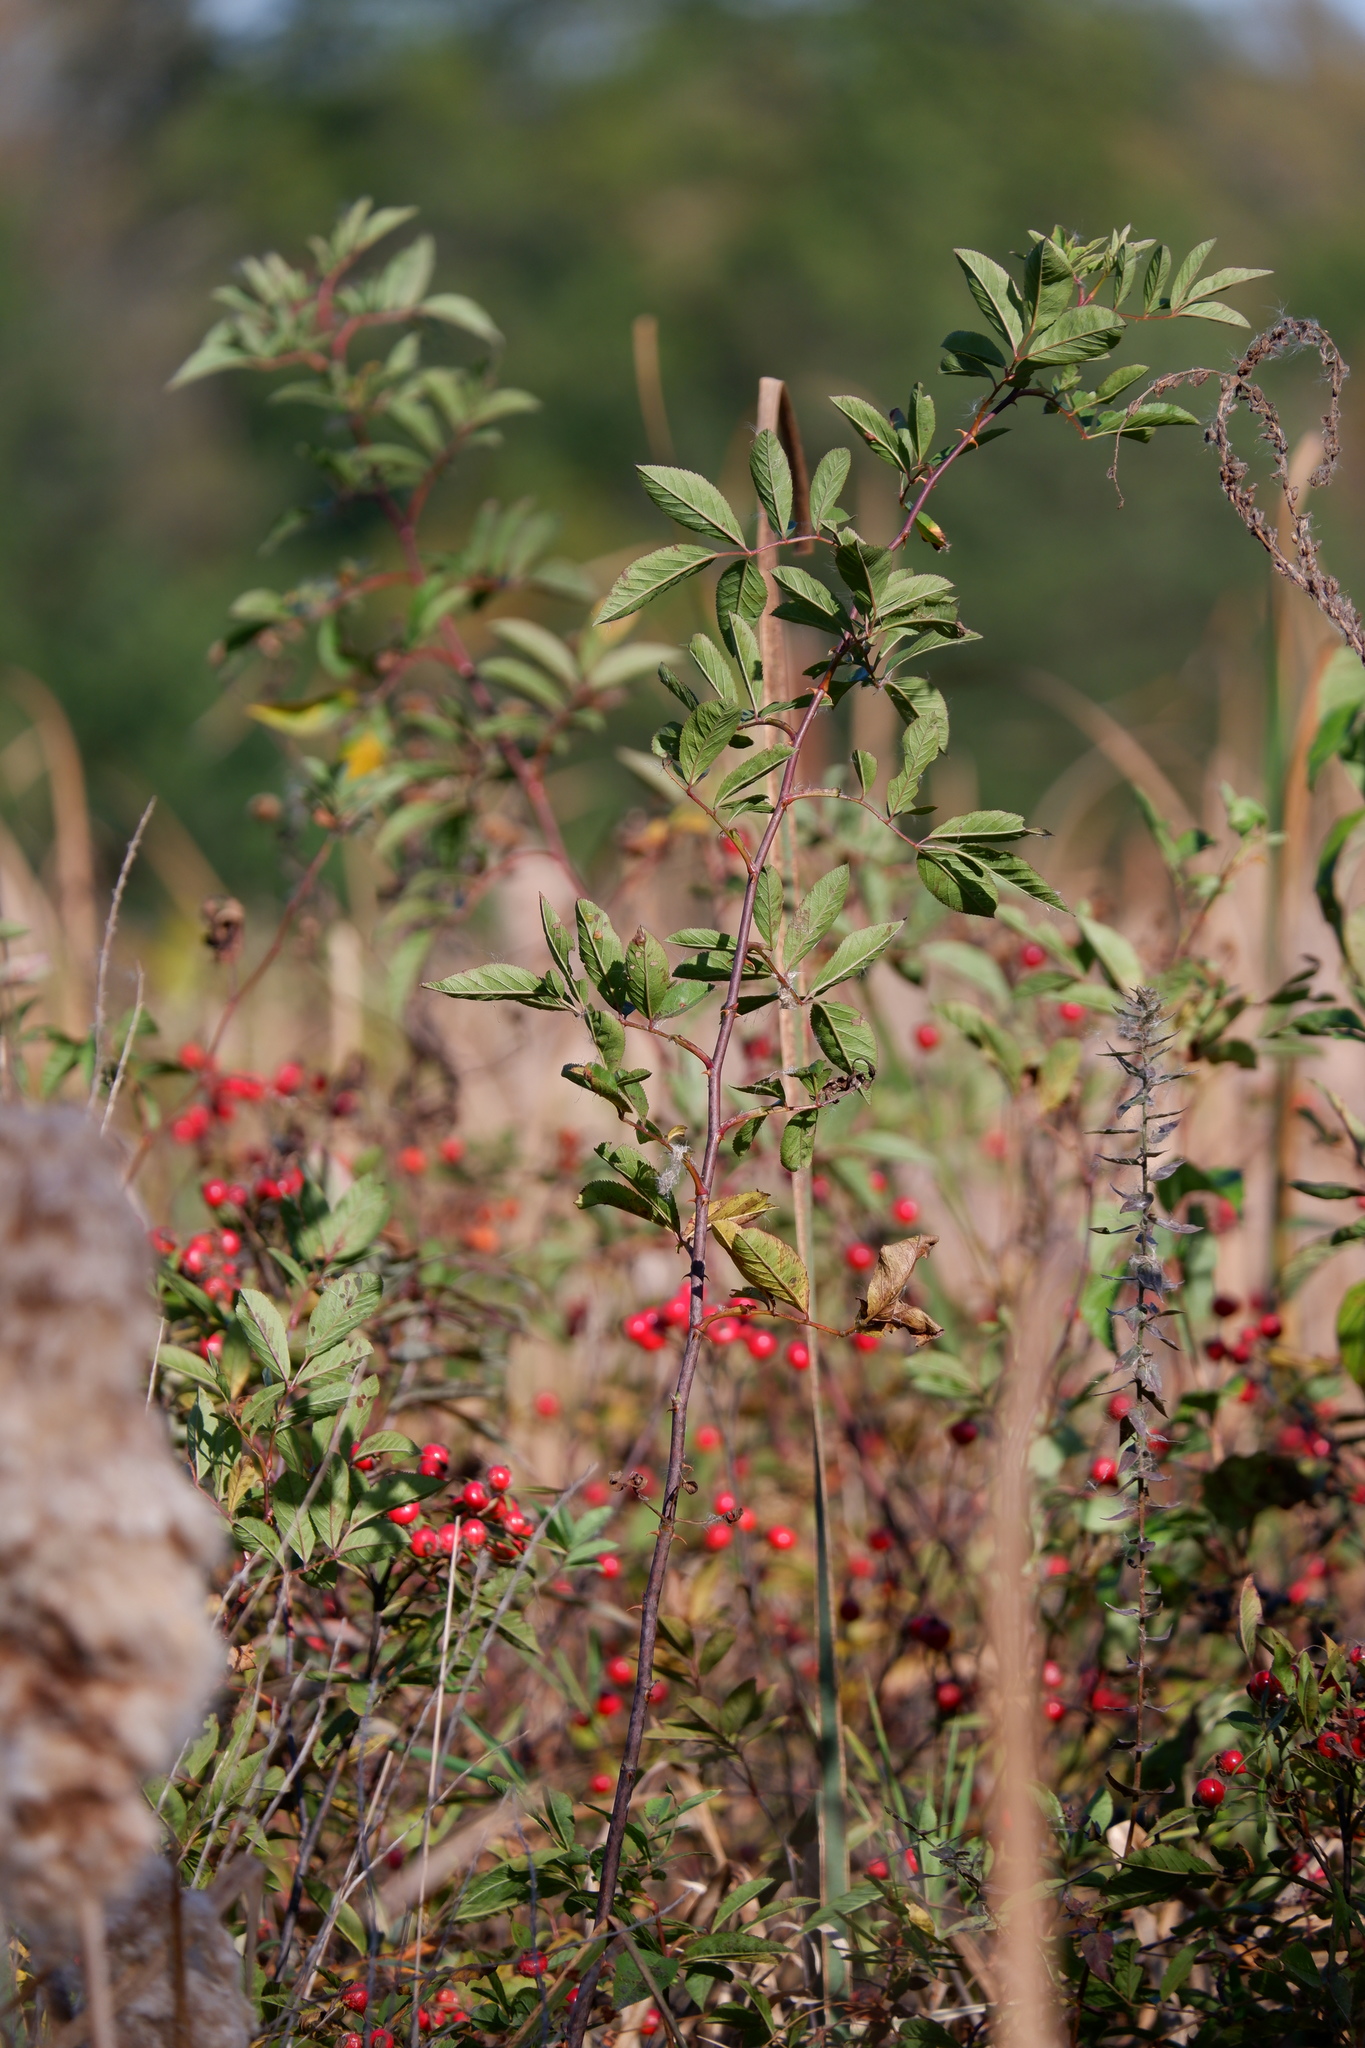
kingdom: Plantae
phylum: Tracheophyta
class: Magnoliopsida
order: Rosales
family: Rosaceae
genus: Rosa
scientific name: Rosa palustris
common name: Swamp rose
